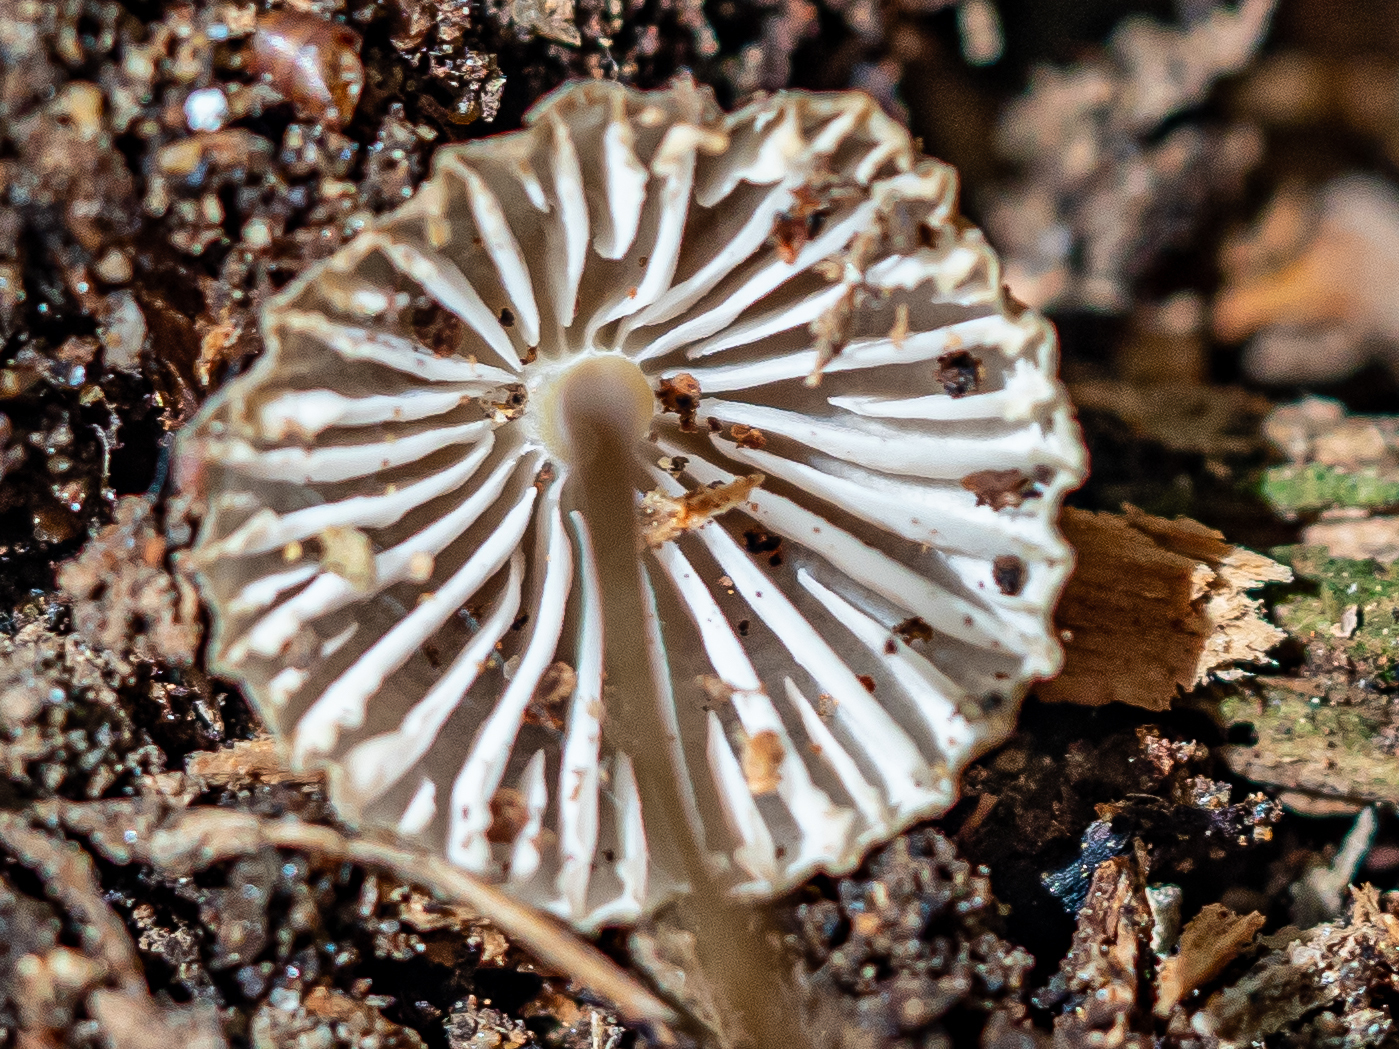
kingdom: Fungi
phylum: Basidiomycota
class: Agaricomycetes
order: Agaricales
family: Mycenaceae
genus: Mycena
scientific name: Mycena epipterygia
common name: Yellowleg bonnet
